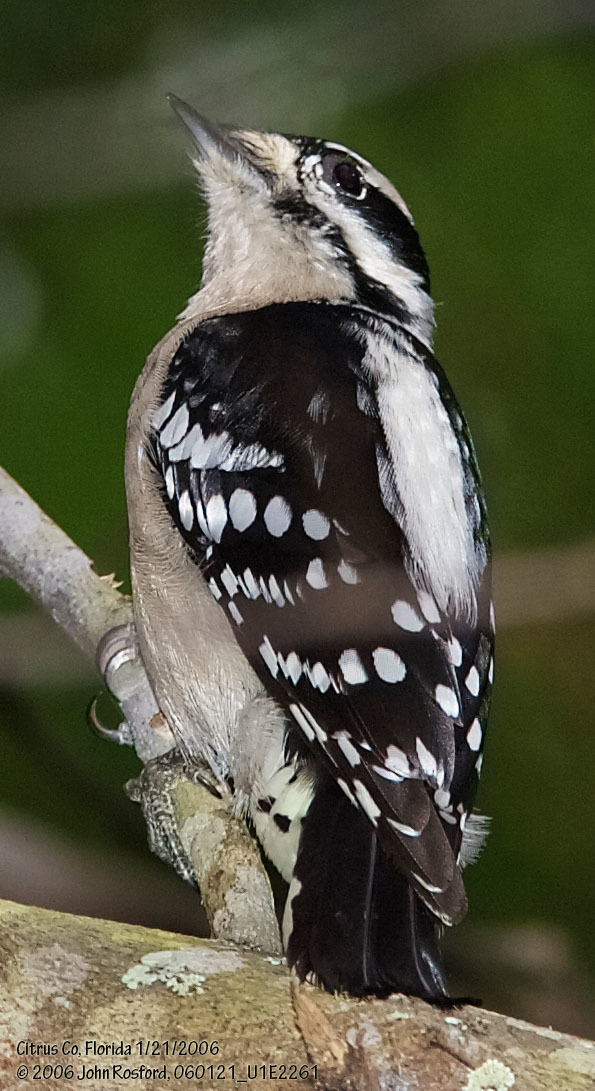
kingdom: Animalia
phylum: Chordata
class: Aves
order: Piciformes
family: Picidae
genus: Dryobates
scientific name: Dryobates pubescens
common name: Downy woodpecker
